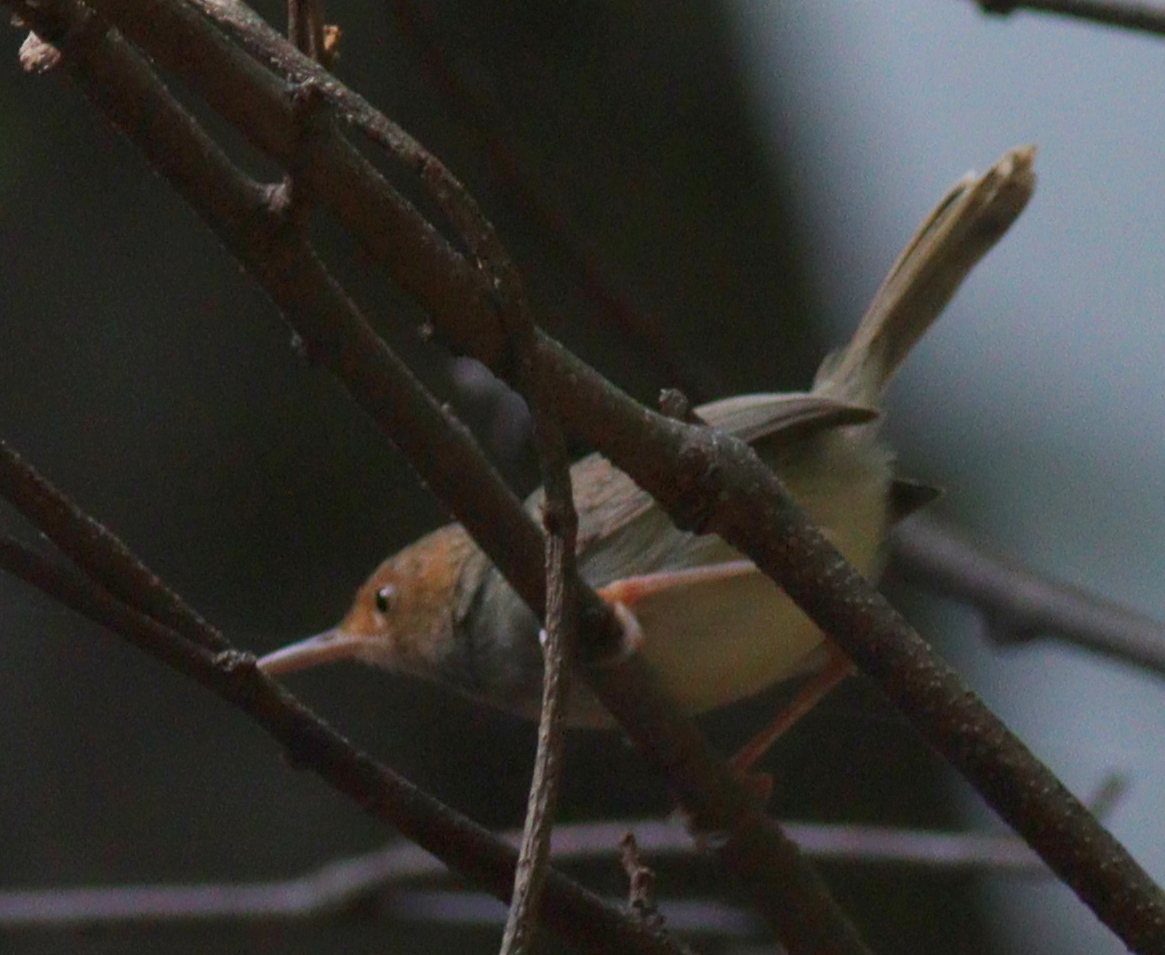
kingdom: Animalia
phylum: Chordata
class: Aves
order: Passeriformes
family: Cisticolidae
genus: Orthotomus
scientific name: Orthotomus sepium
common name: Olive-backed tailorbird
